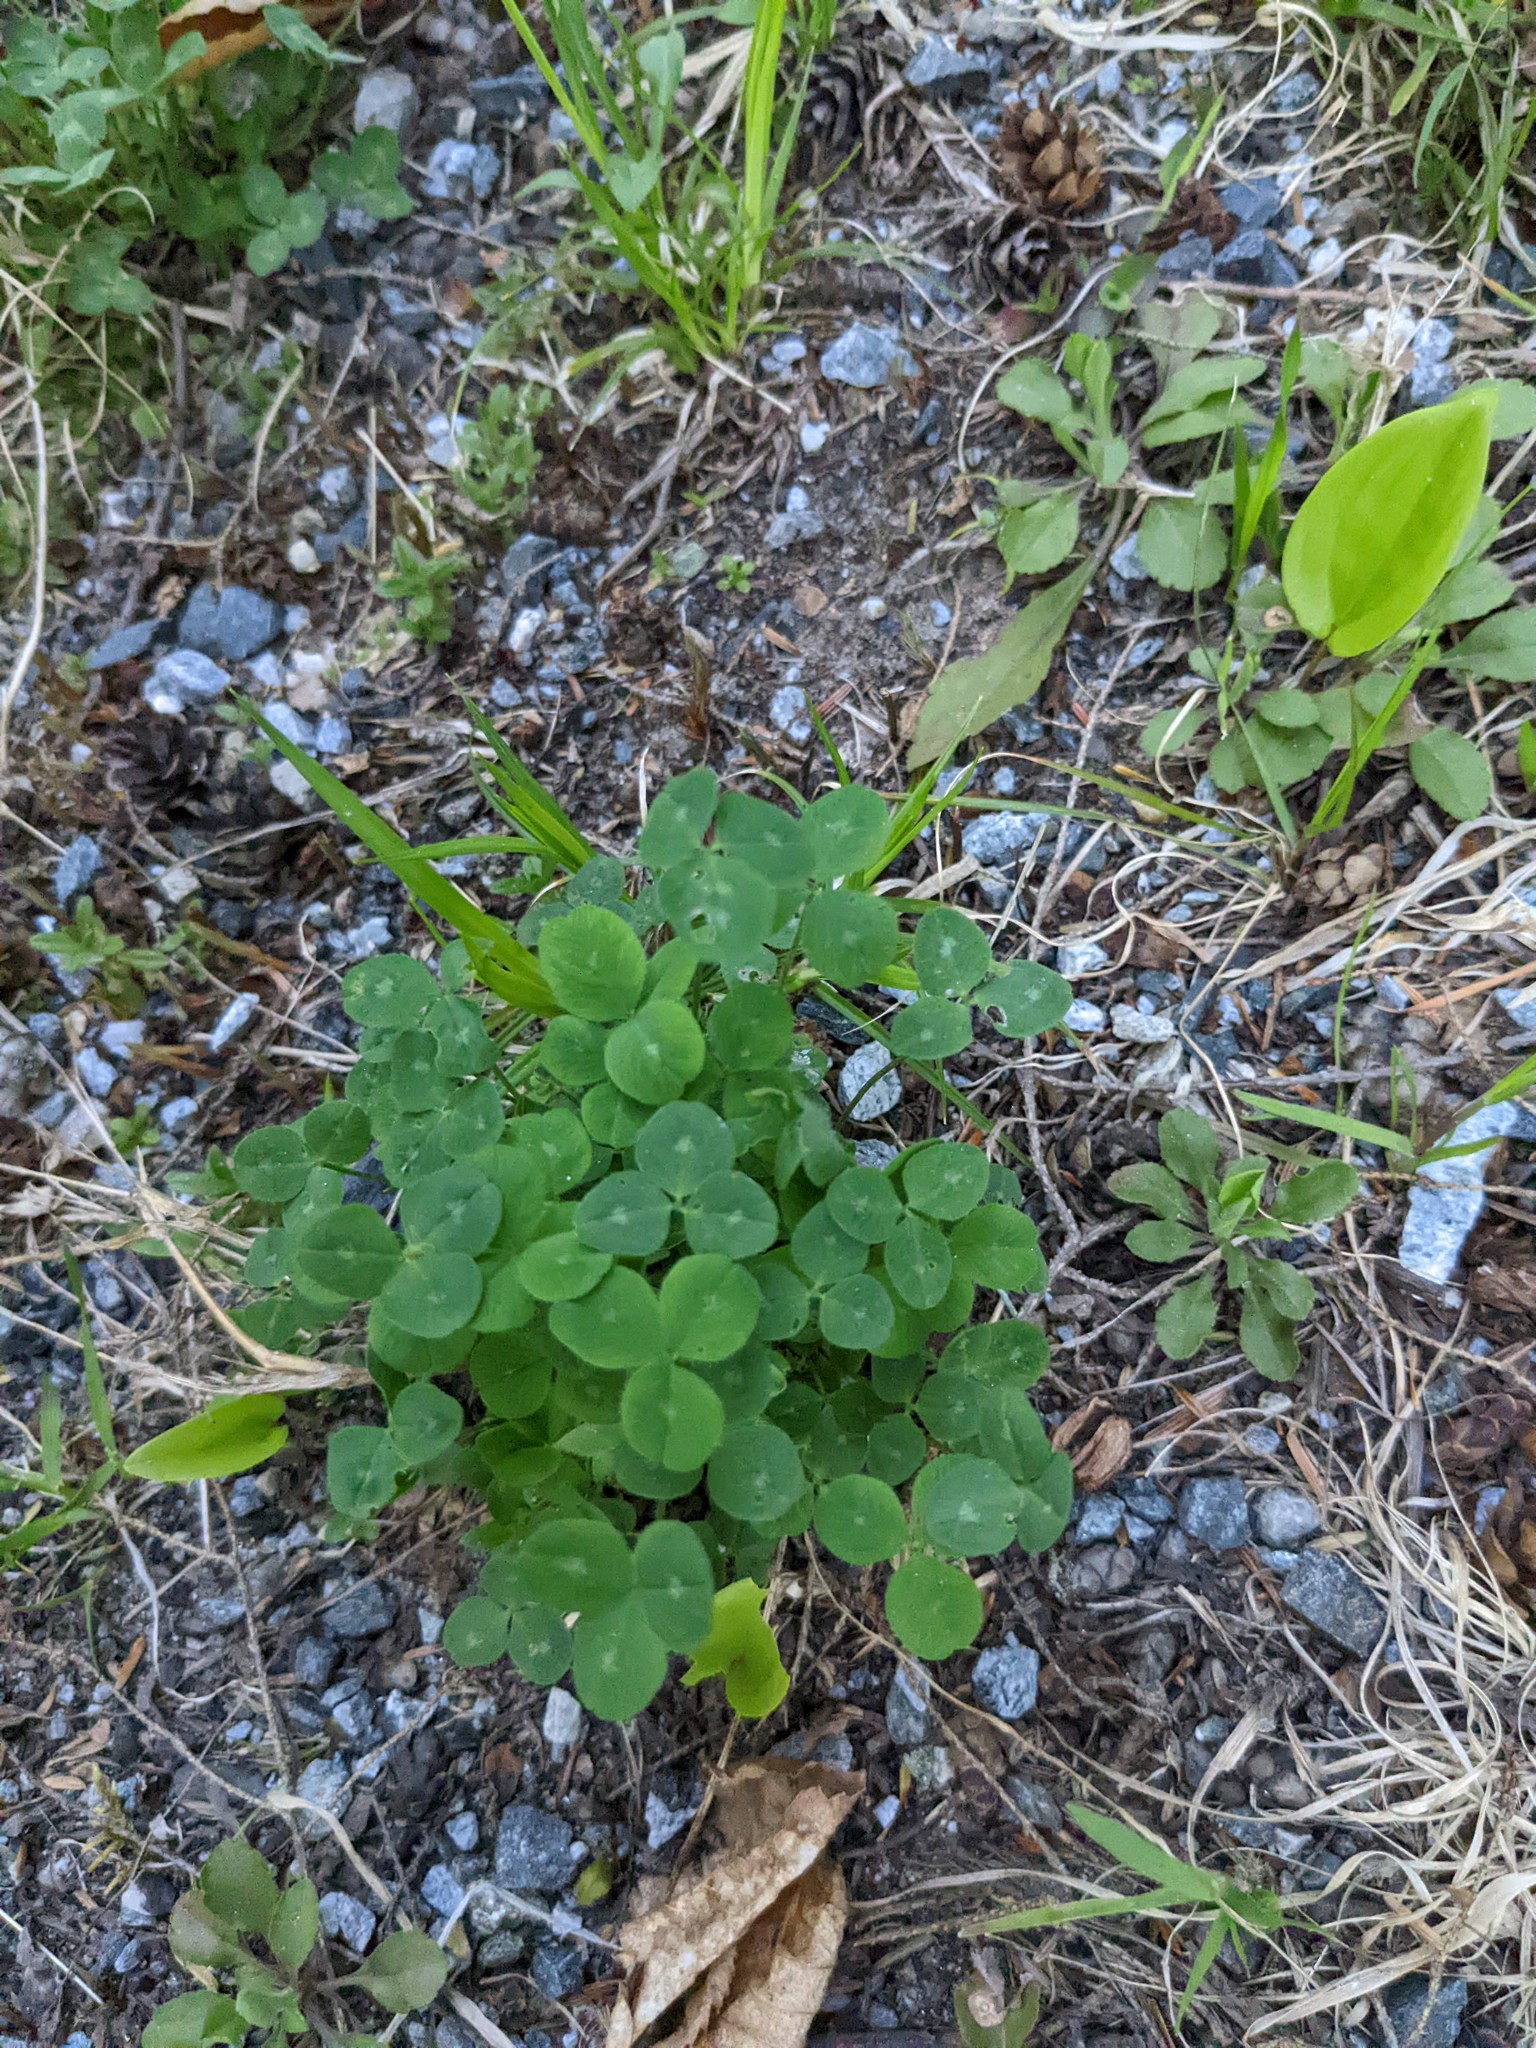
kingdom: Plantae
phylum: Tracheophyta
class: Magnoliopsida
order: Fabales
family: Fabaceae
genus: Trifolium
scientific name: Trifolium repens
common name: White clover
